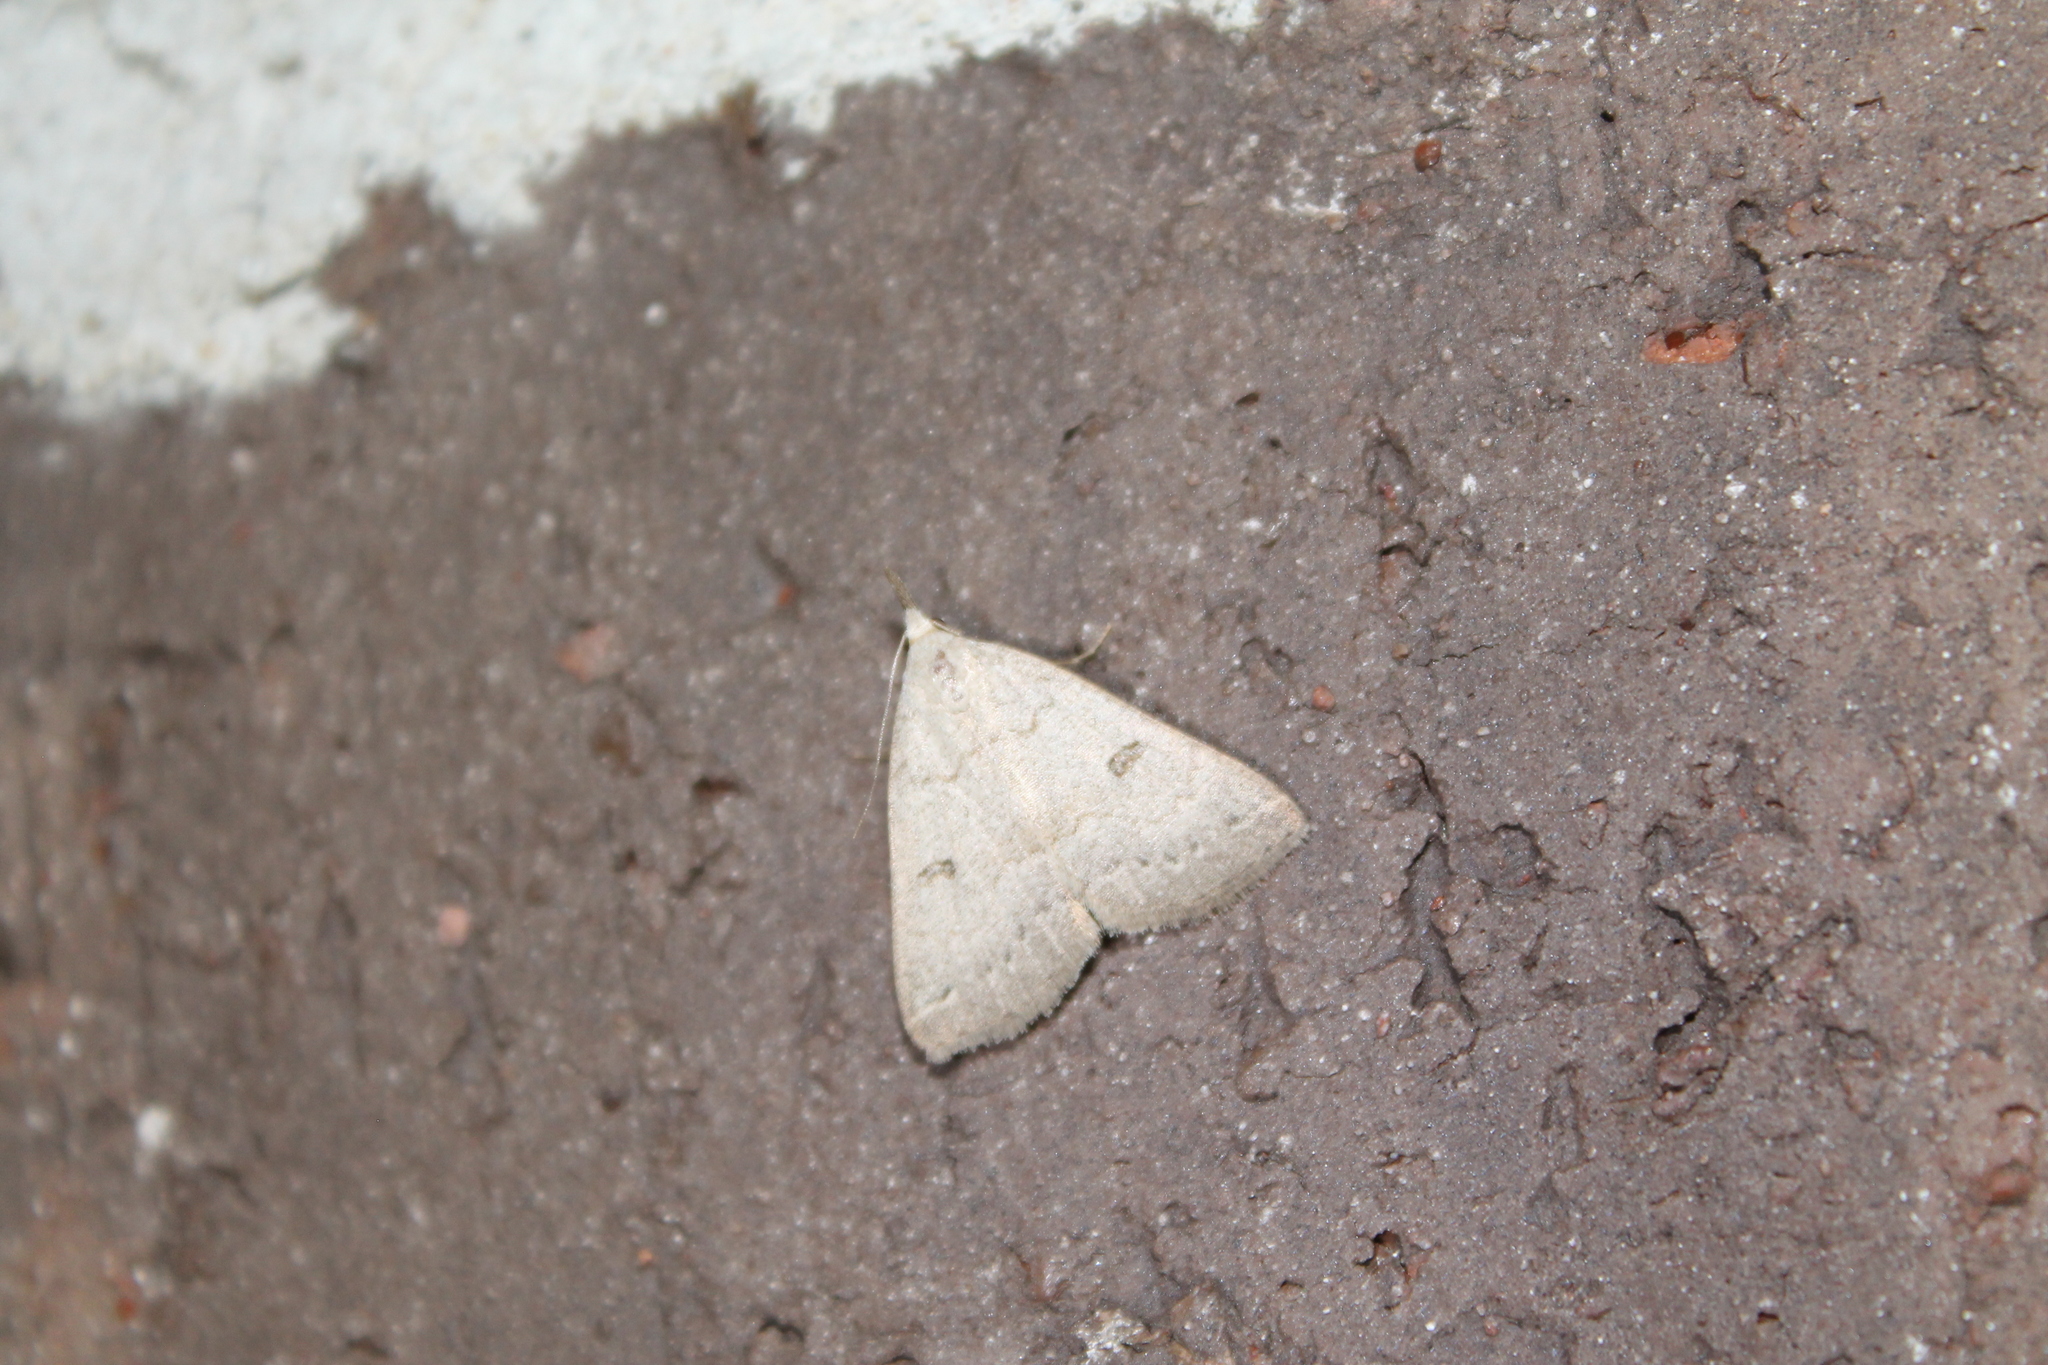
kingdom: Animalia
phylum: Arthropoda
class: Insecta
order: Lepidoptera
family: Erebidae
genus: Macrochilo
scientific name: Macrochilo morbidalis
